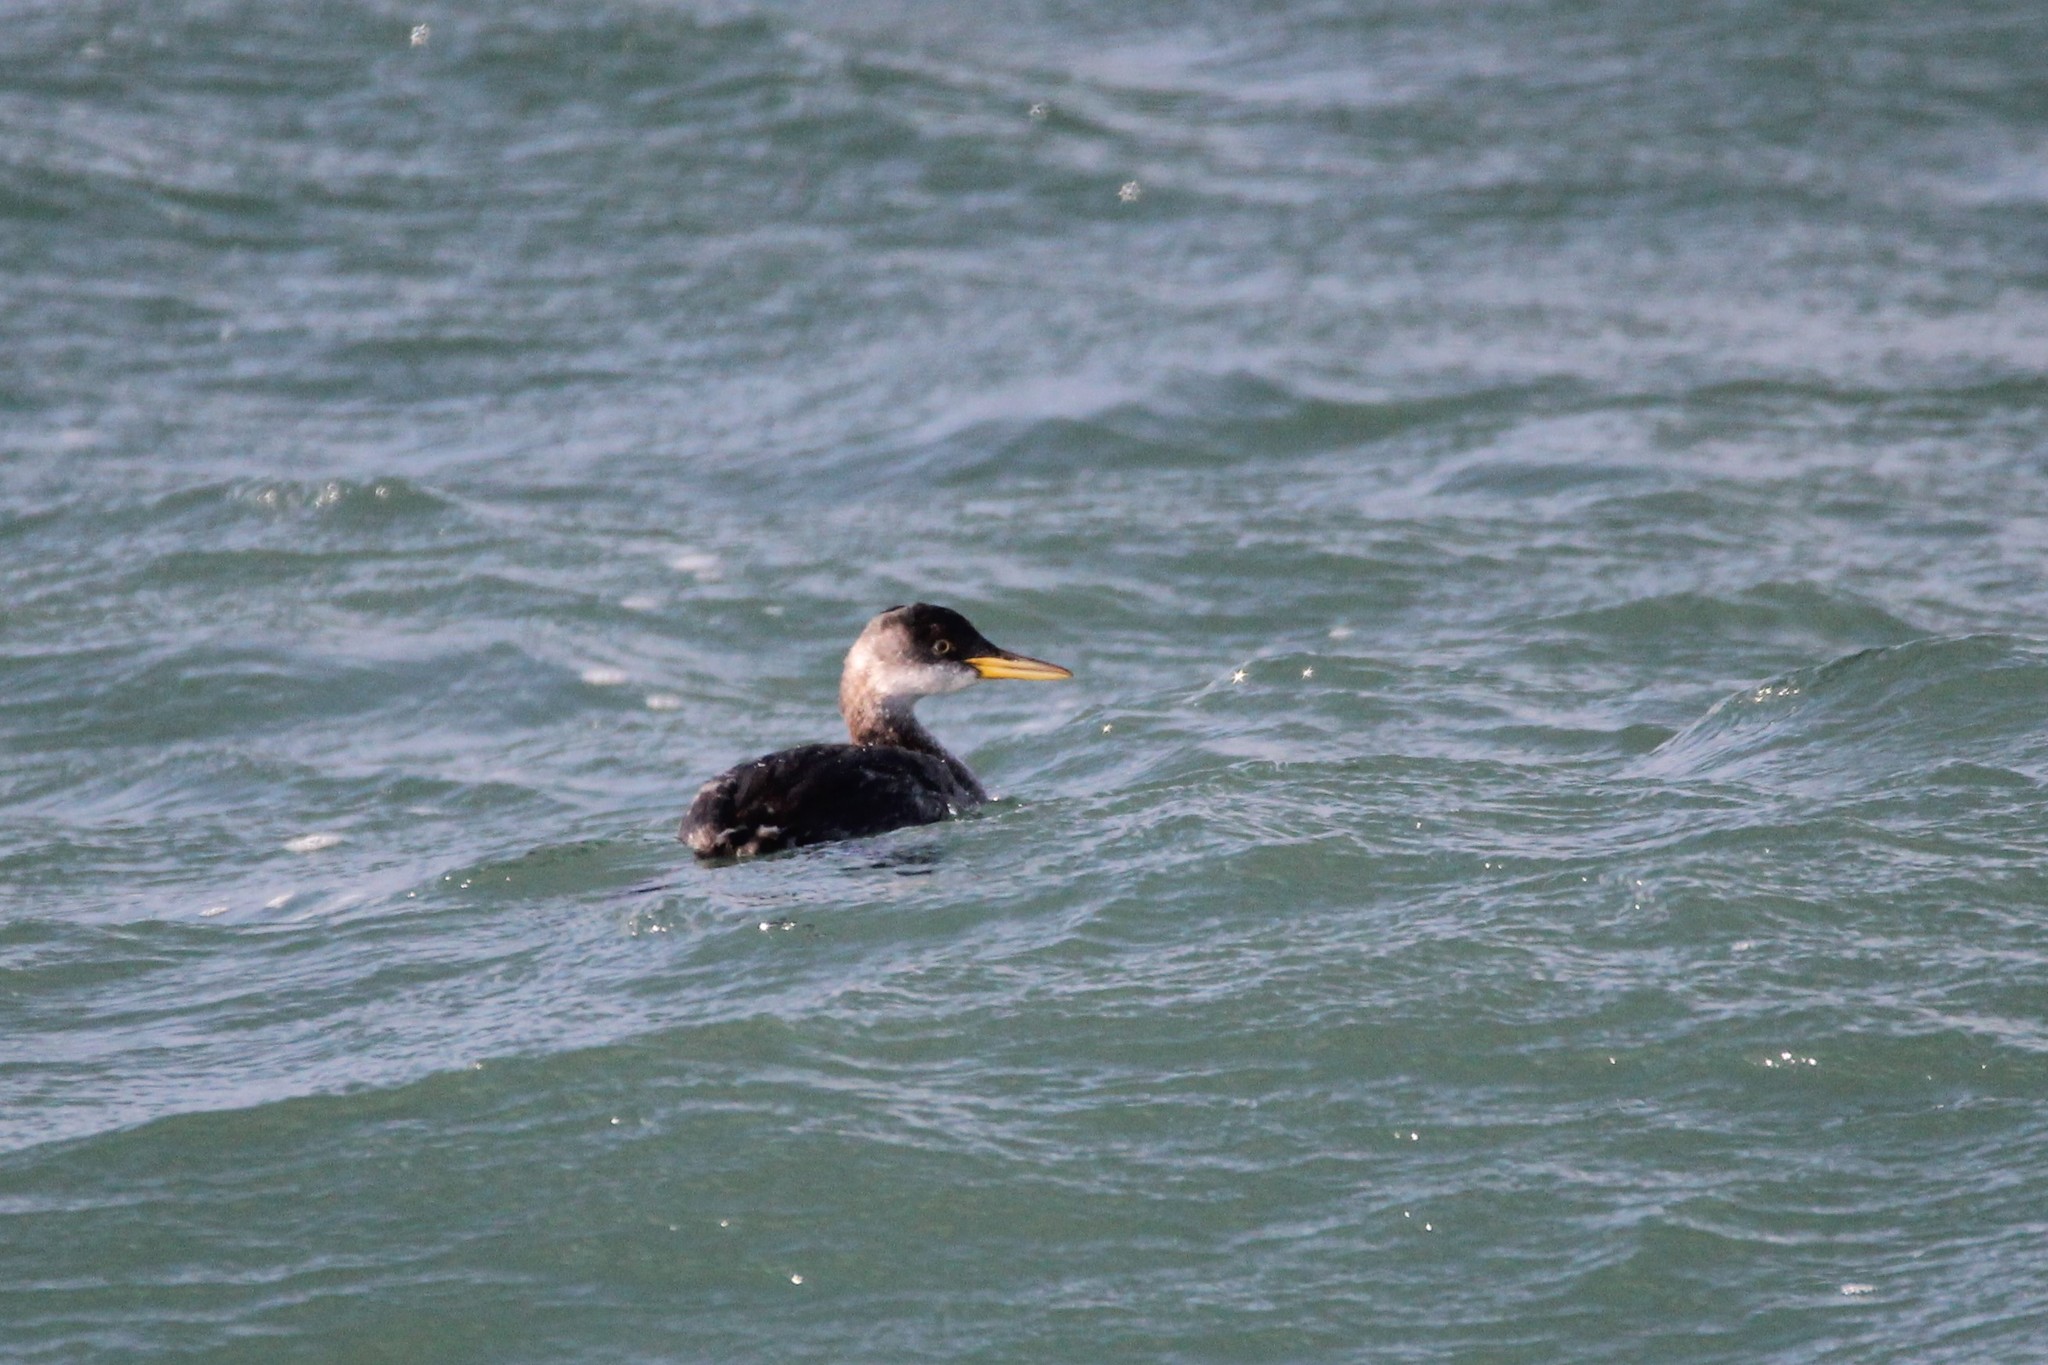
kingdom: Animalia
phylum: Chordata
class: Aves
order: Podicipediformes
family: Podicipedidae
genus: Podiceps
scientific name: Podiceps grisegena
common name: Red-necked grebe
